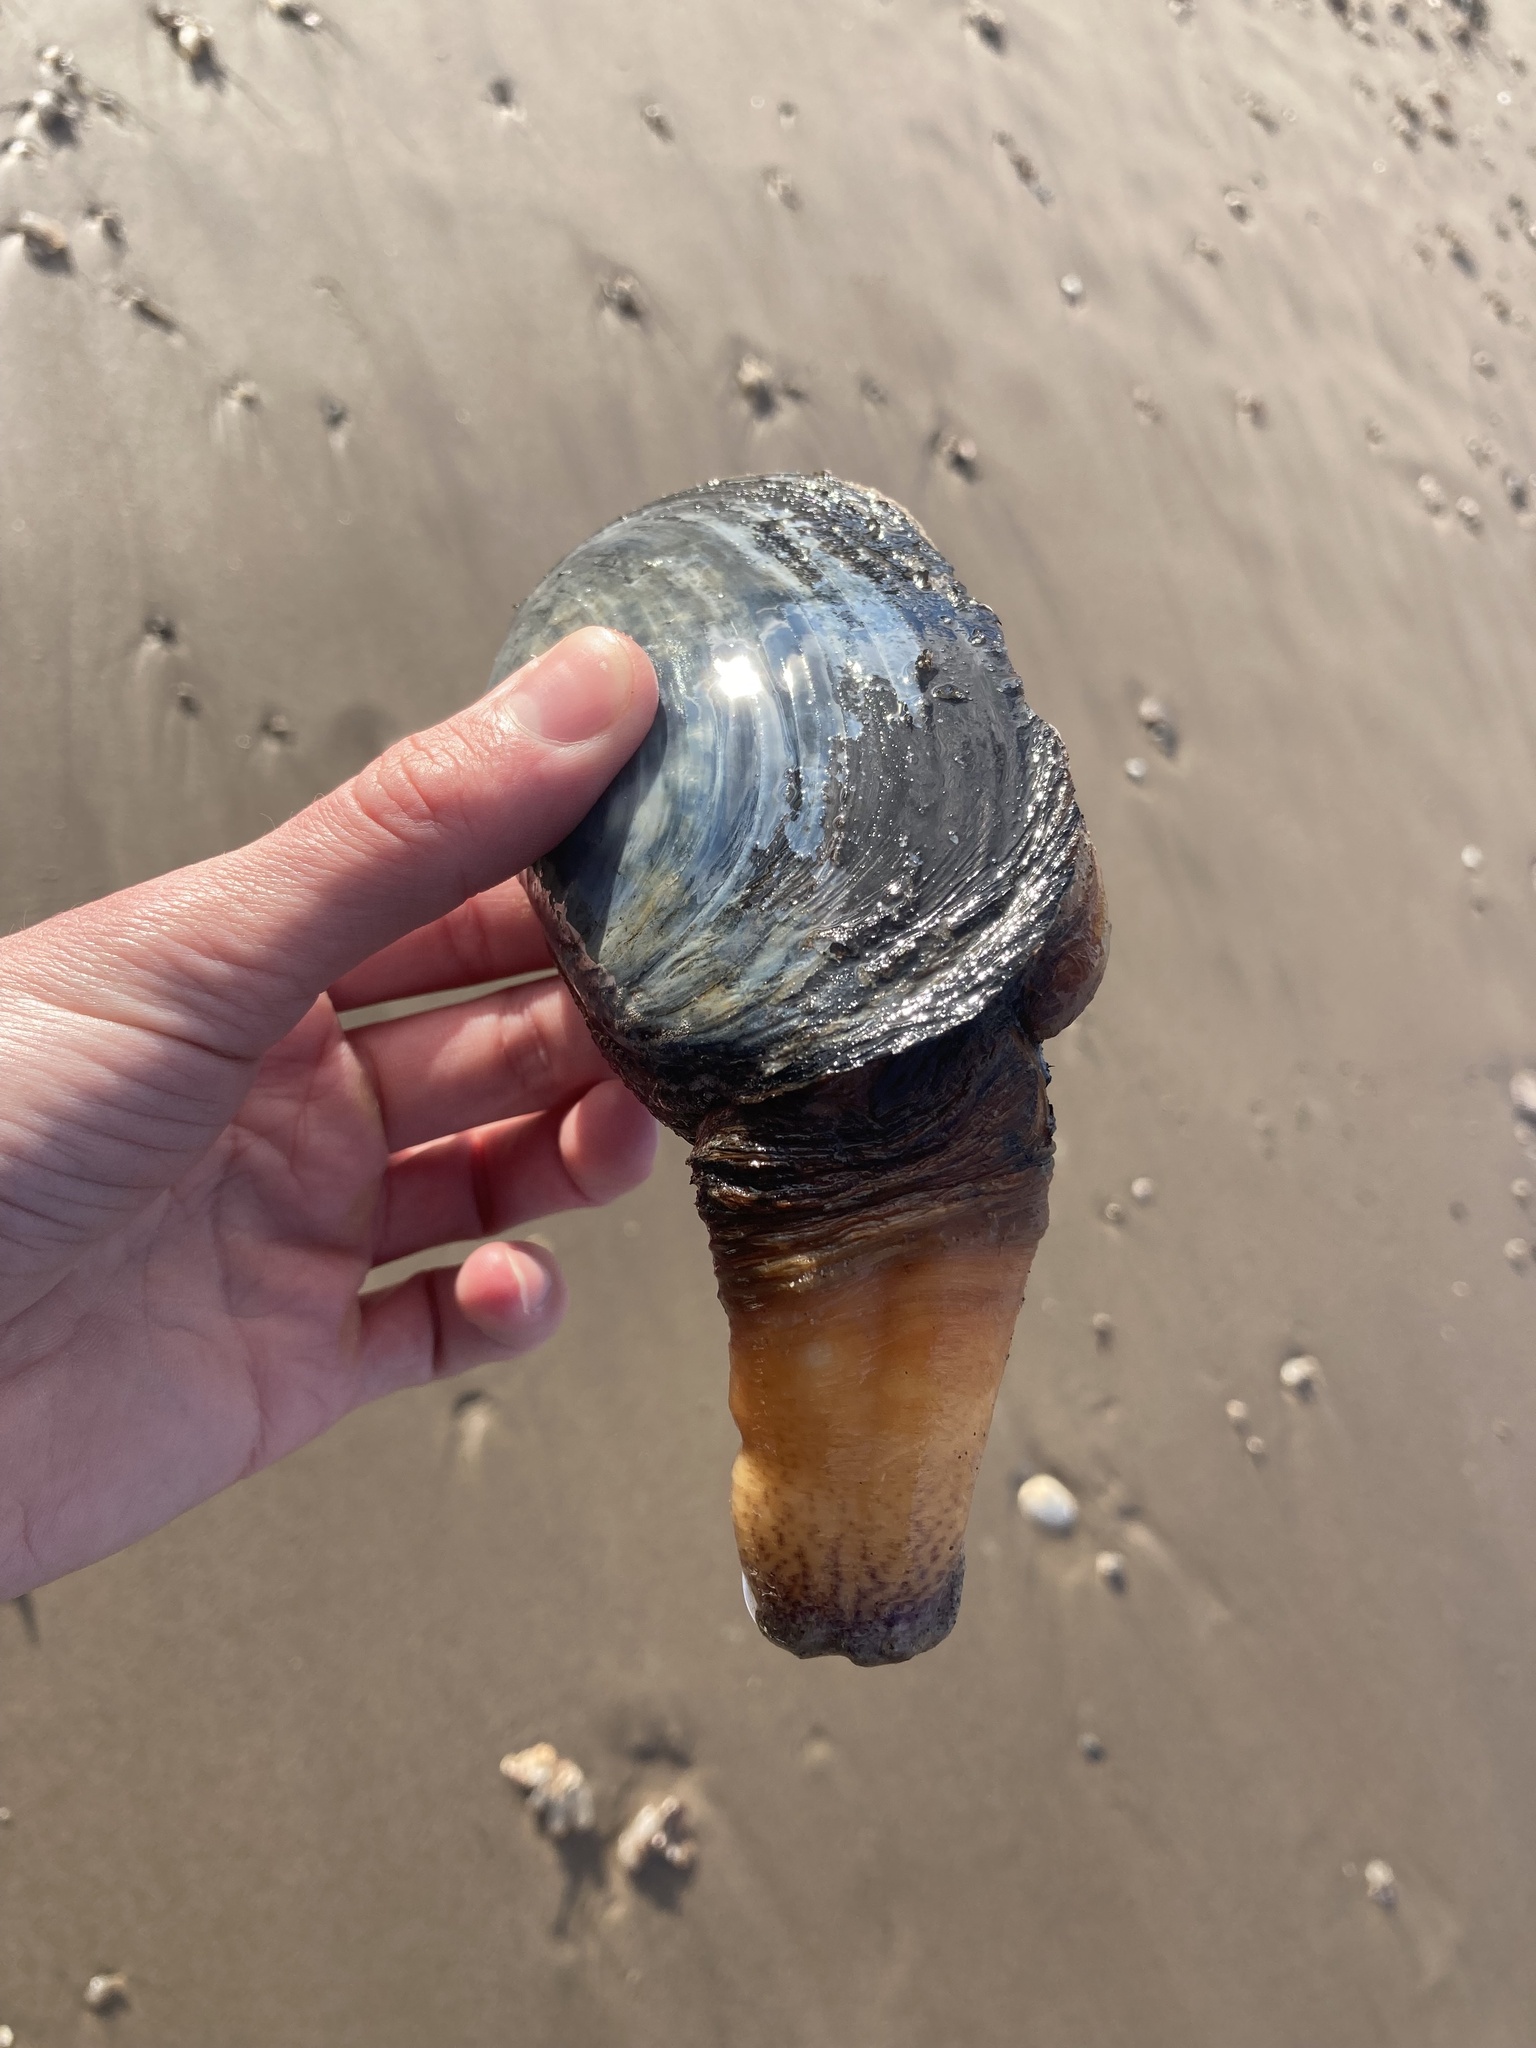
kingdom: Animalia
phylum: Mollusca
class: Bivalvia
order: Venerida
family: Mactridae
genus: Lutraria
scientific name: Lutraria lutraria
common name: Common otter shell
